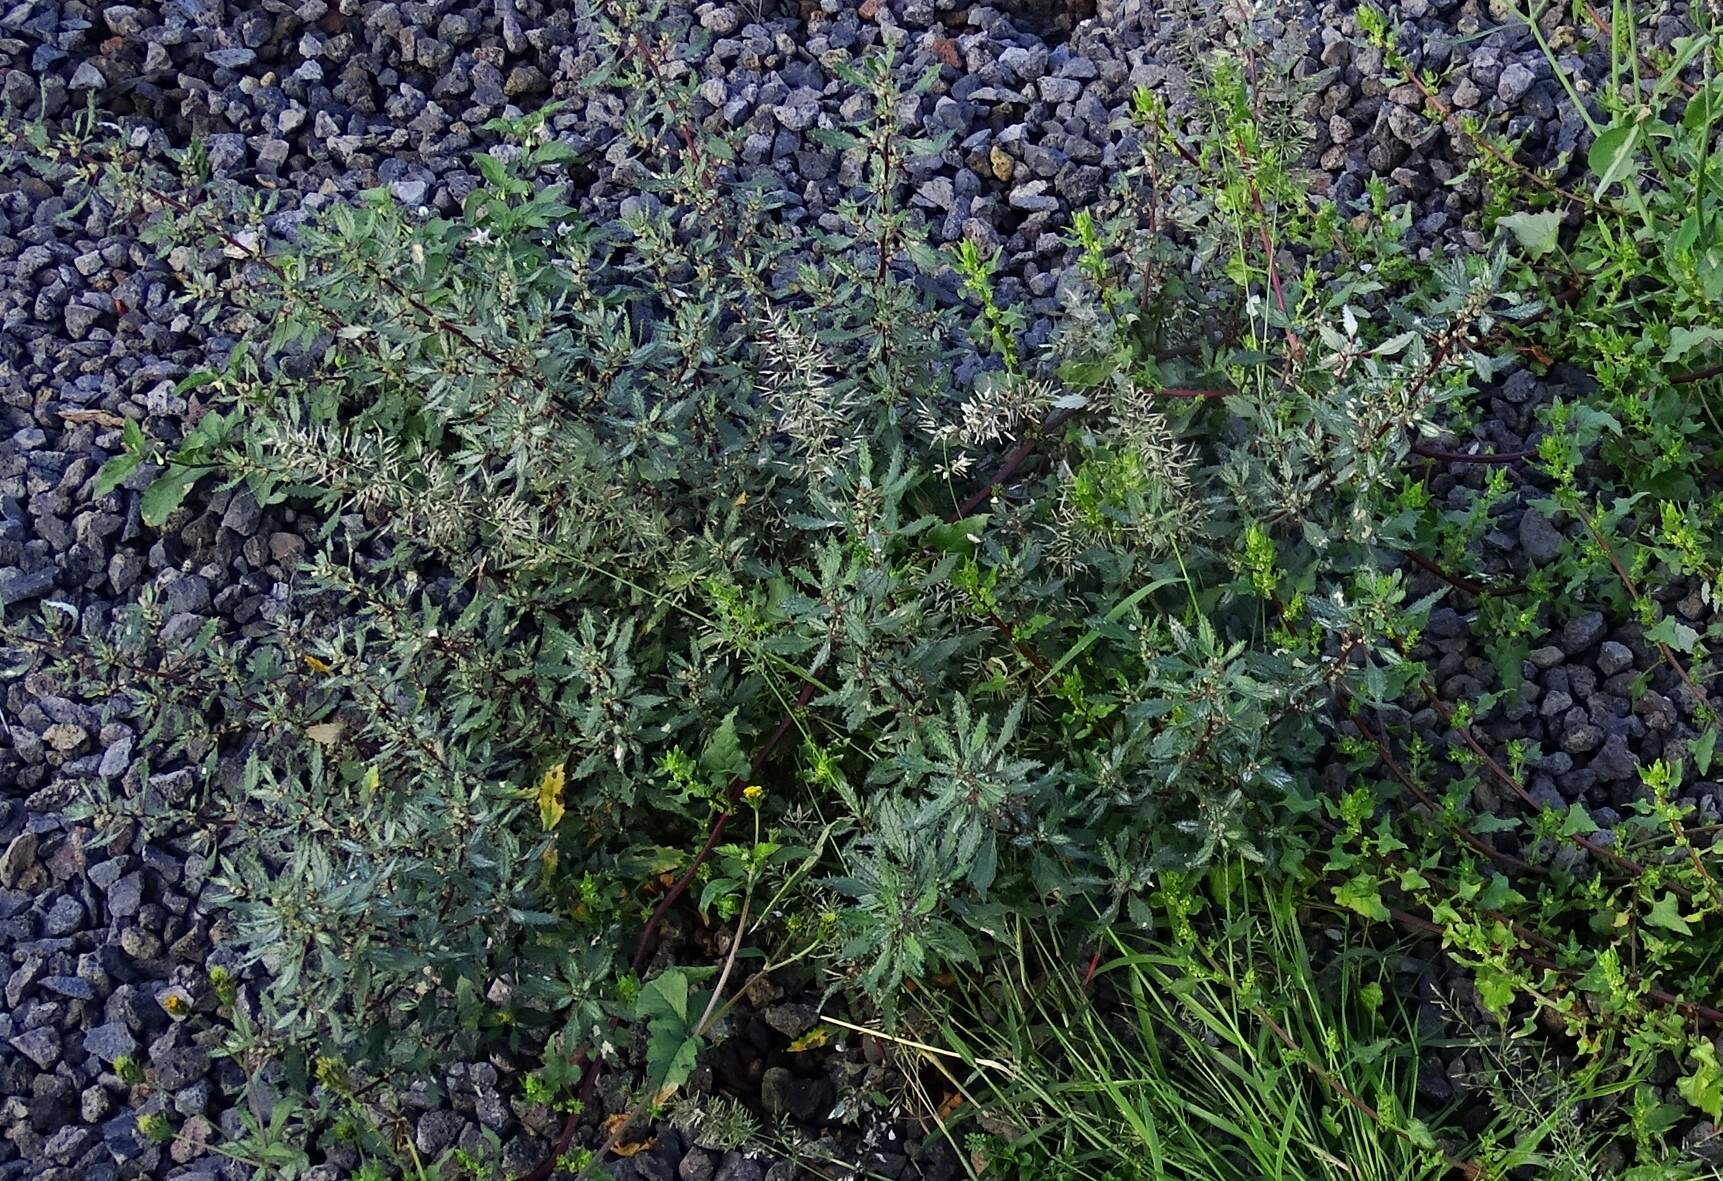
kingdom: Plantae
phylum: Tracheophyta
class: Magnoliopsida
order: Rosales
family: Urticaceae
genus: Forsskaolea
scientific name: Forsskaolea angustifolia
